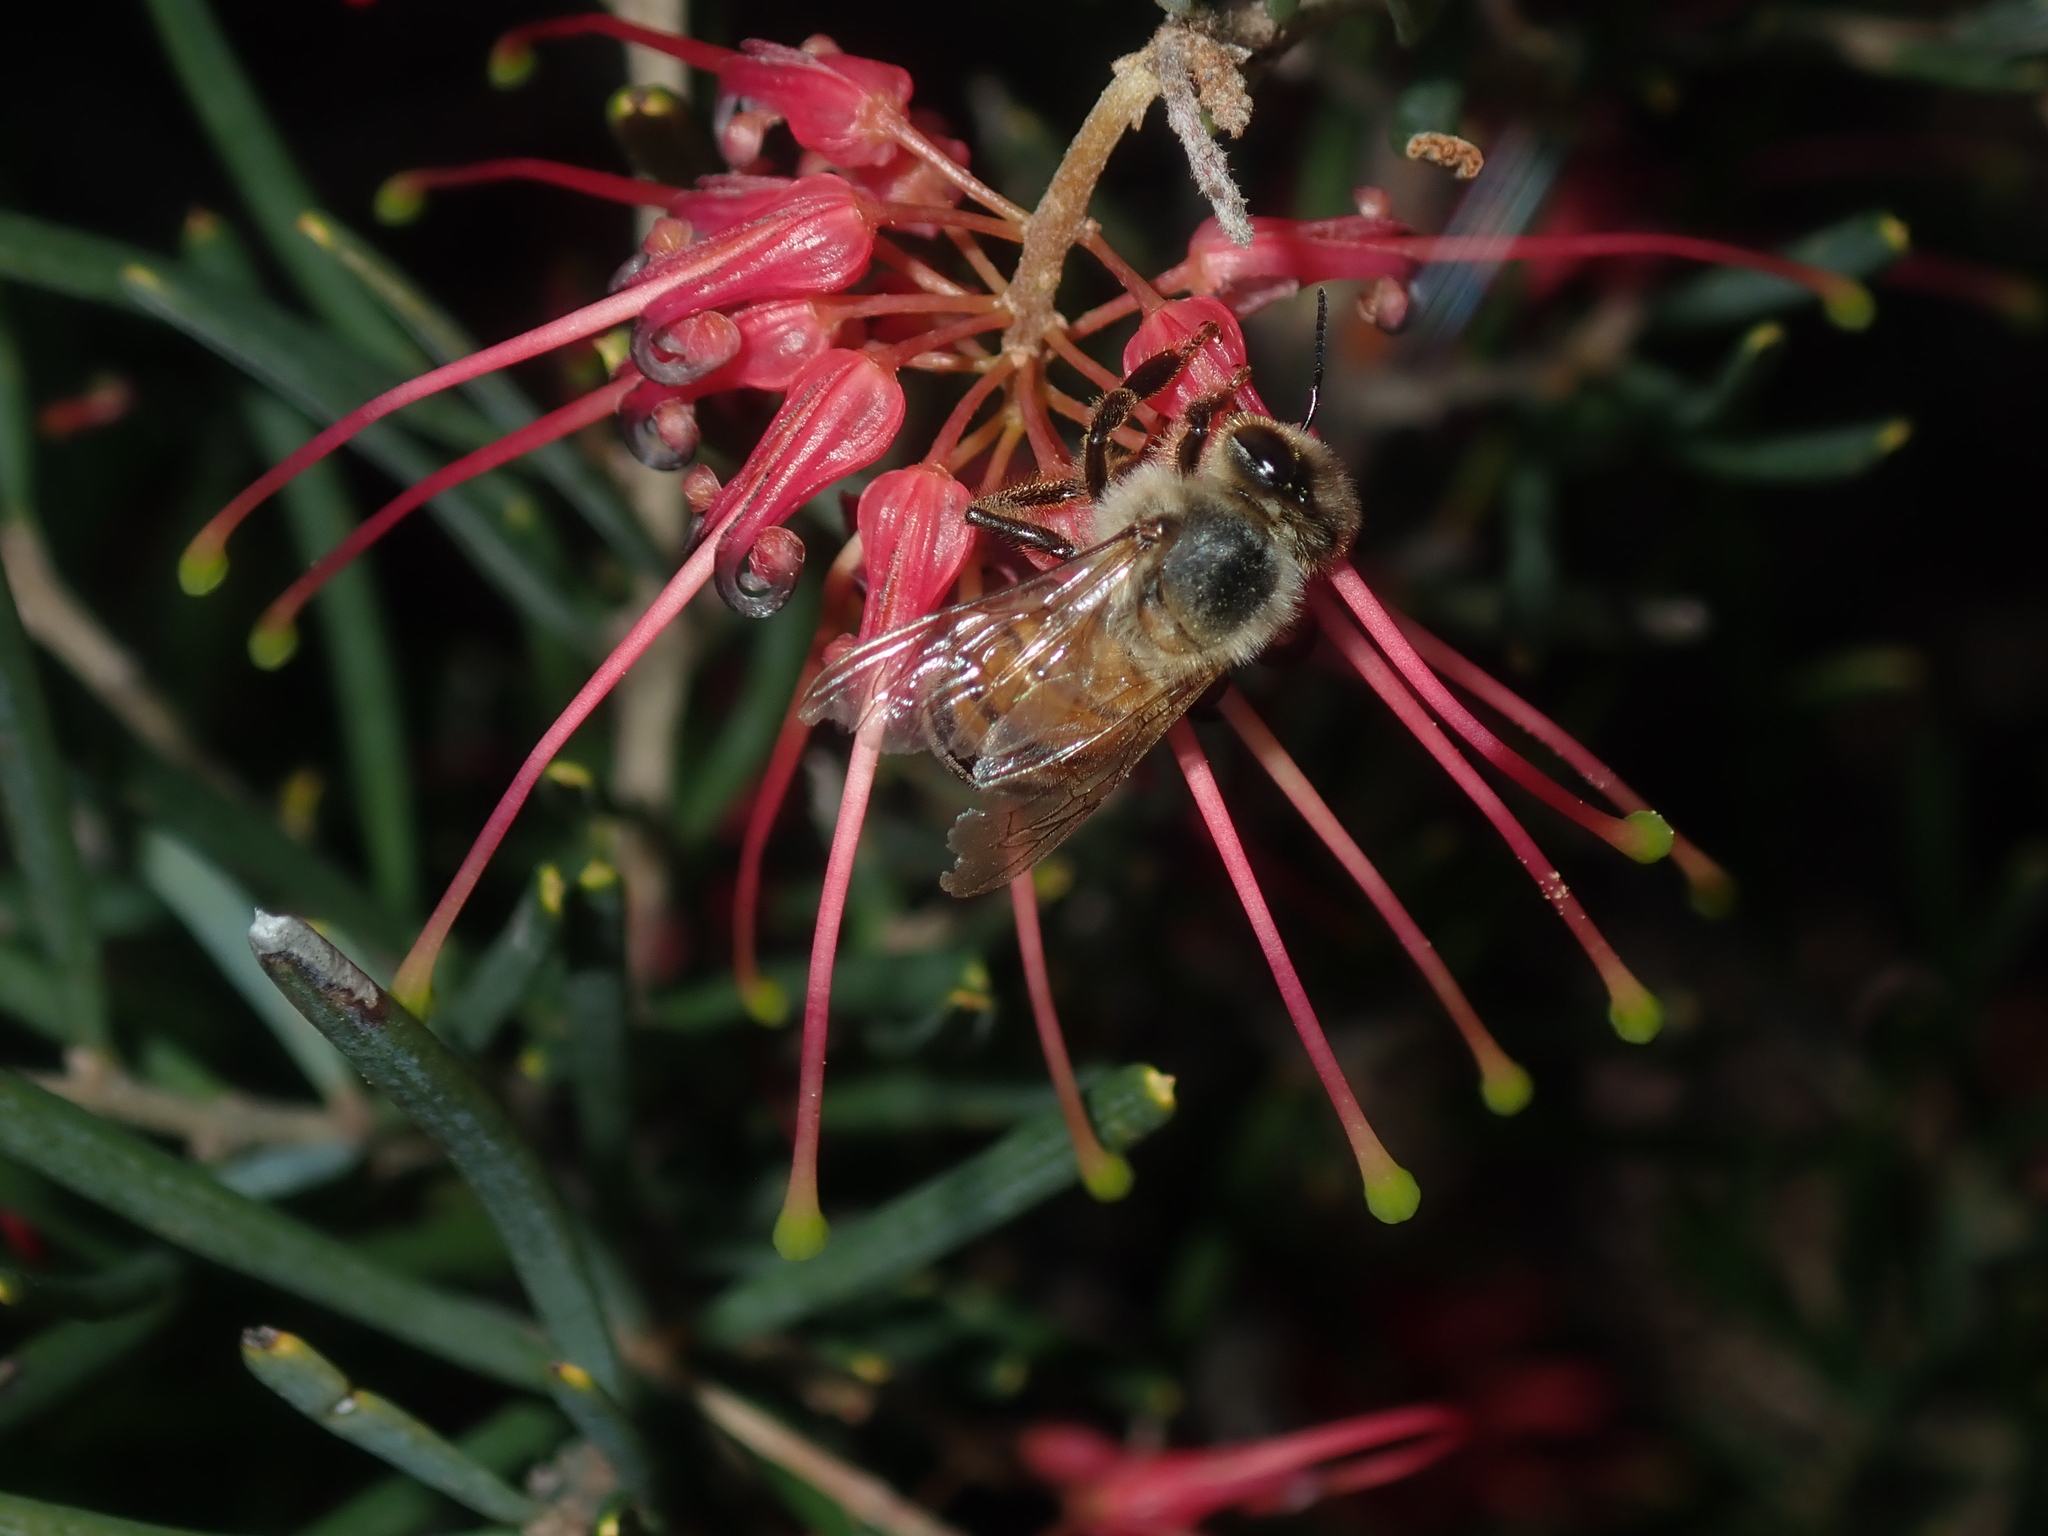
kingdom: Animalia
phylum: Arthropoda
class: Insecta
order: Hymenoptera
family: Apidae
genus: Apis
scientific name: Apis mellifera
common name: Honey bee
